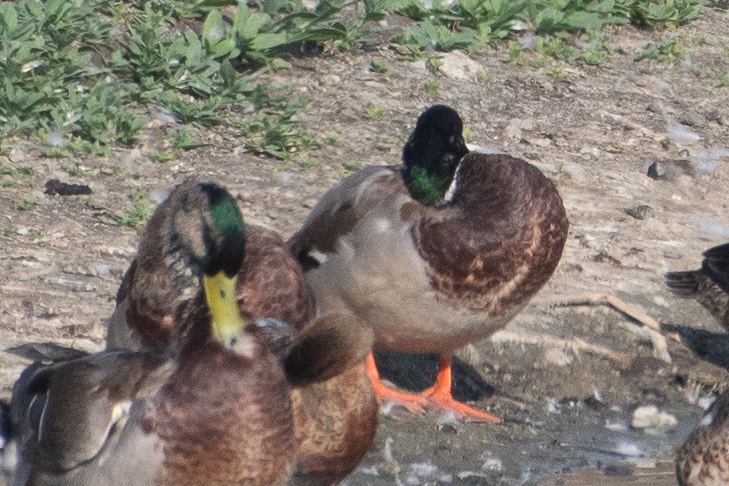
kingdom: Animalia
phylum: Chordata
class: Aves
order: Anseriformes
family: Anatidae
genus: Anas
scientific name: Anas platyrhynchos
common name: Mallard
